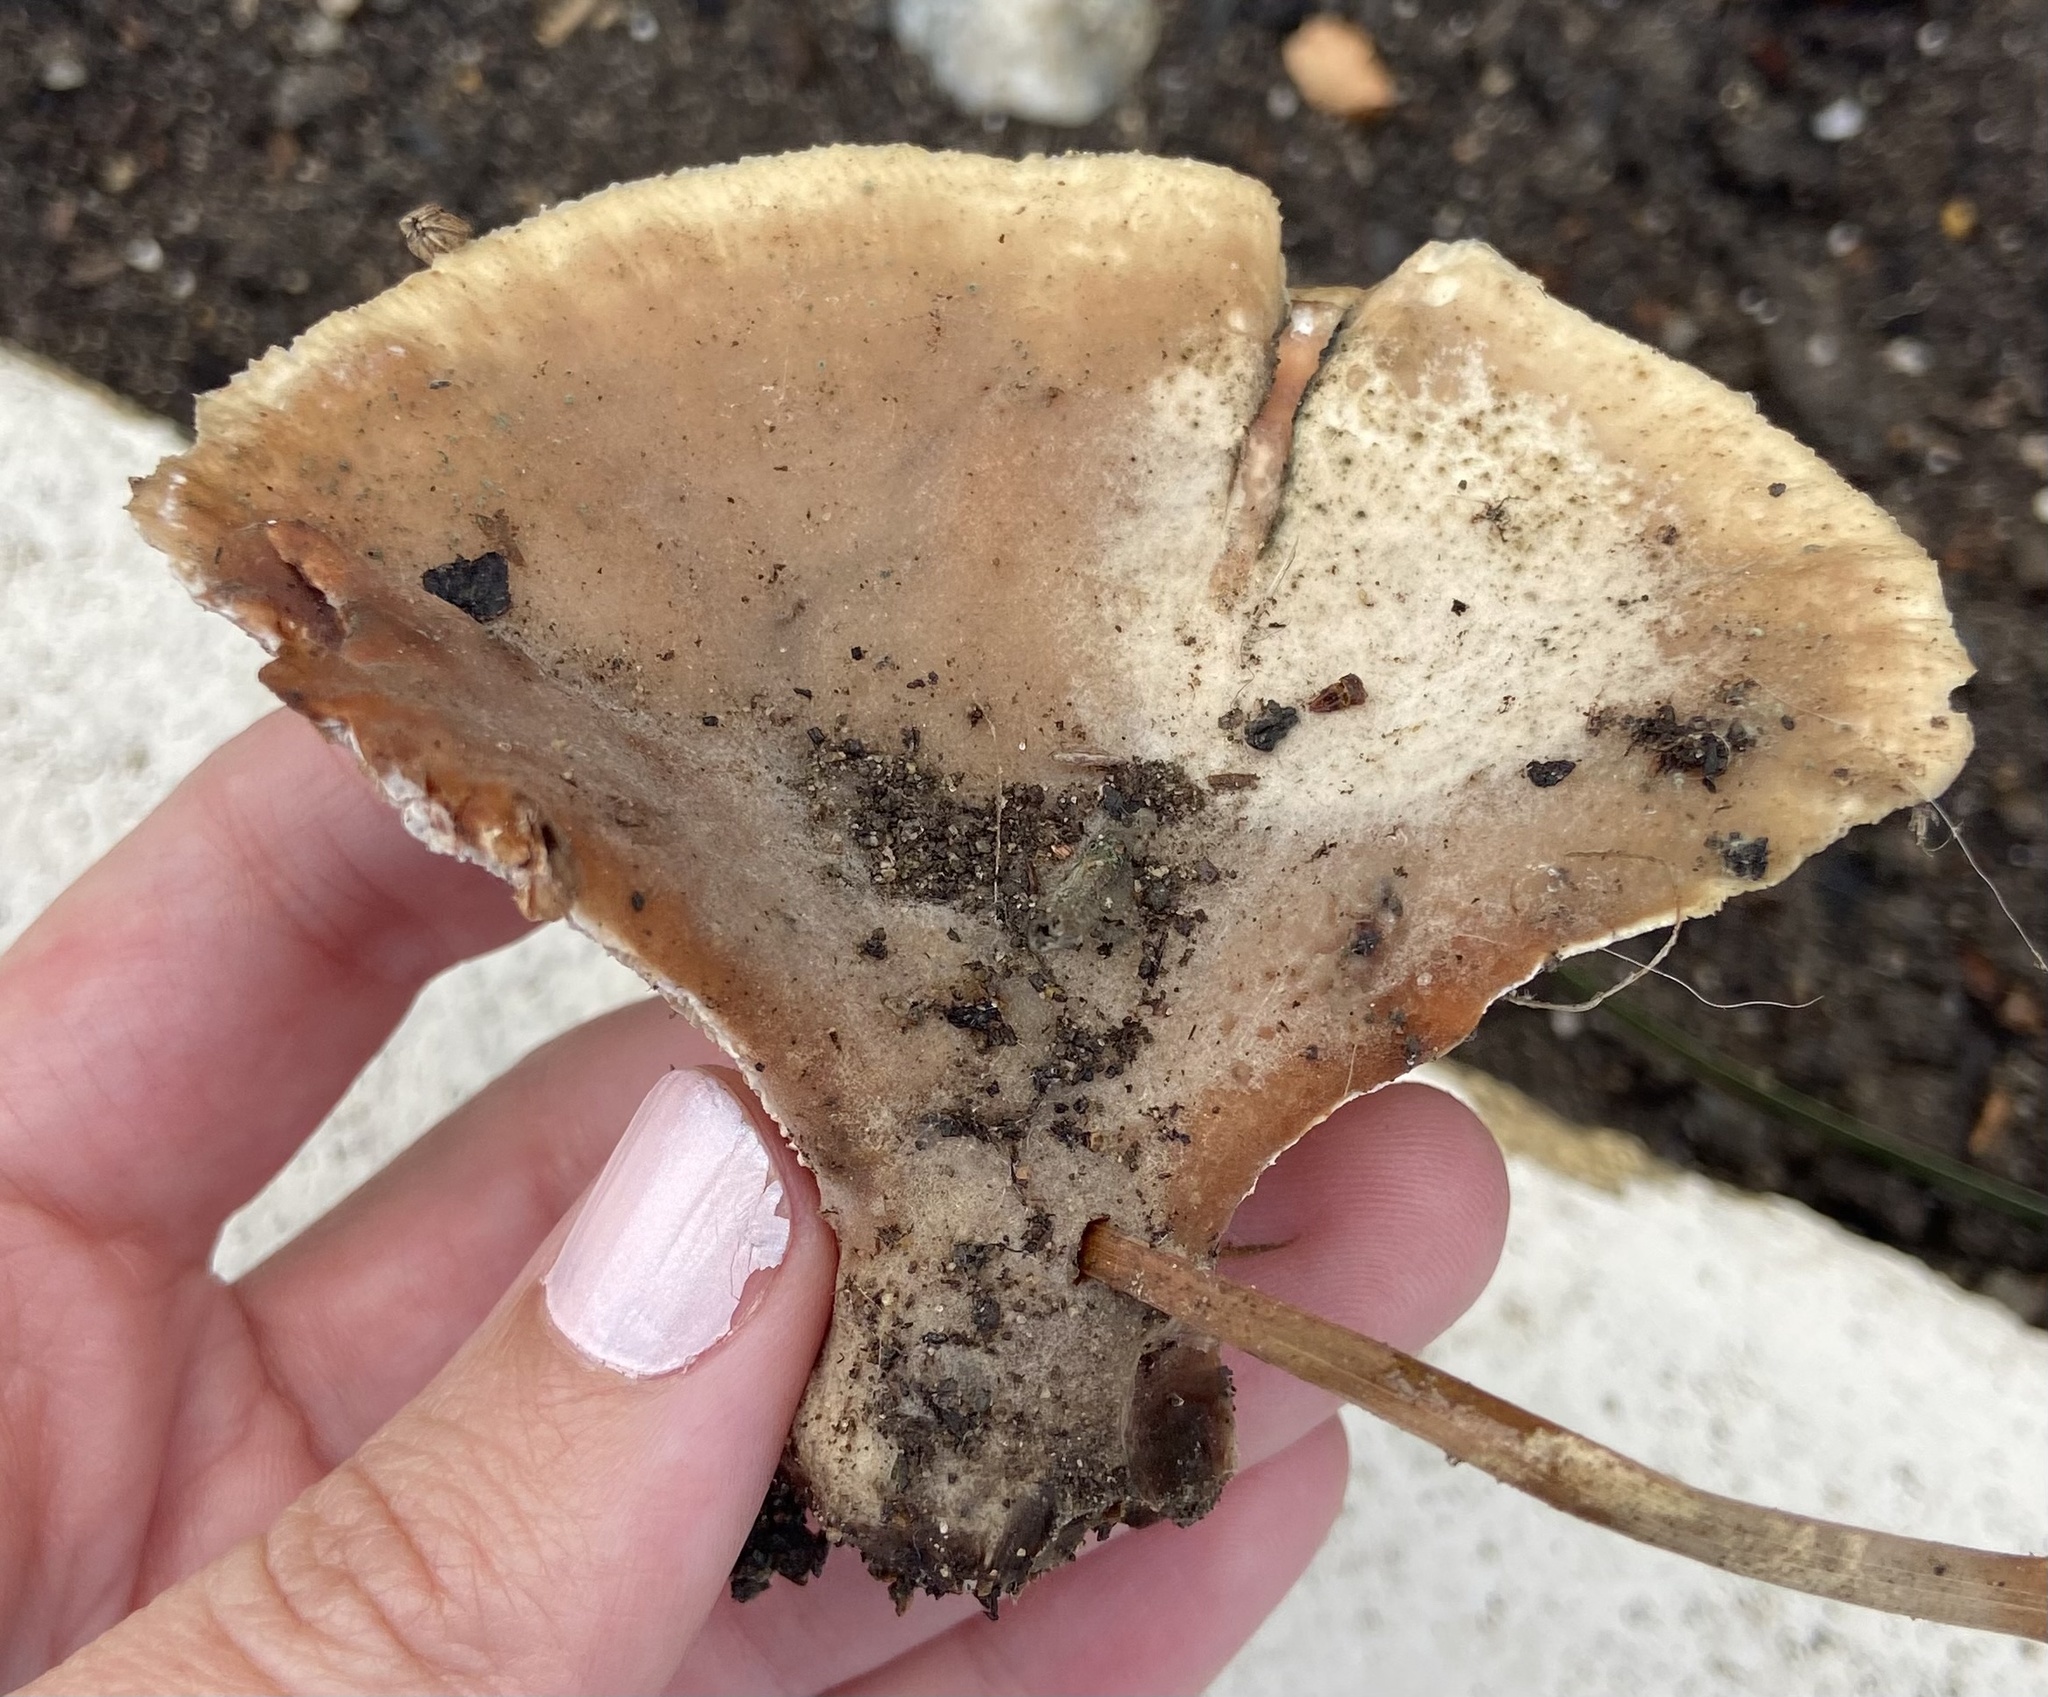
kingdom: Fungi
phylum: Basidiomycota
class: Agaricomycetes
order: Polyporales
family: Podoscyphaceae
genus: Abortiporus
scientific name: Abortiporus biennis
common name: Blushing rosette
